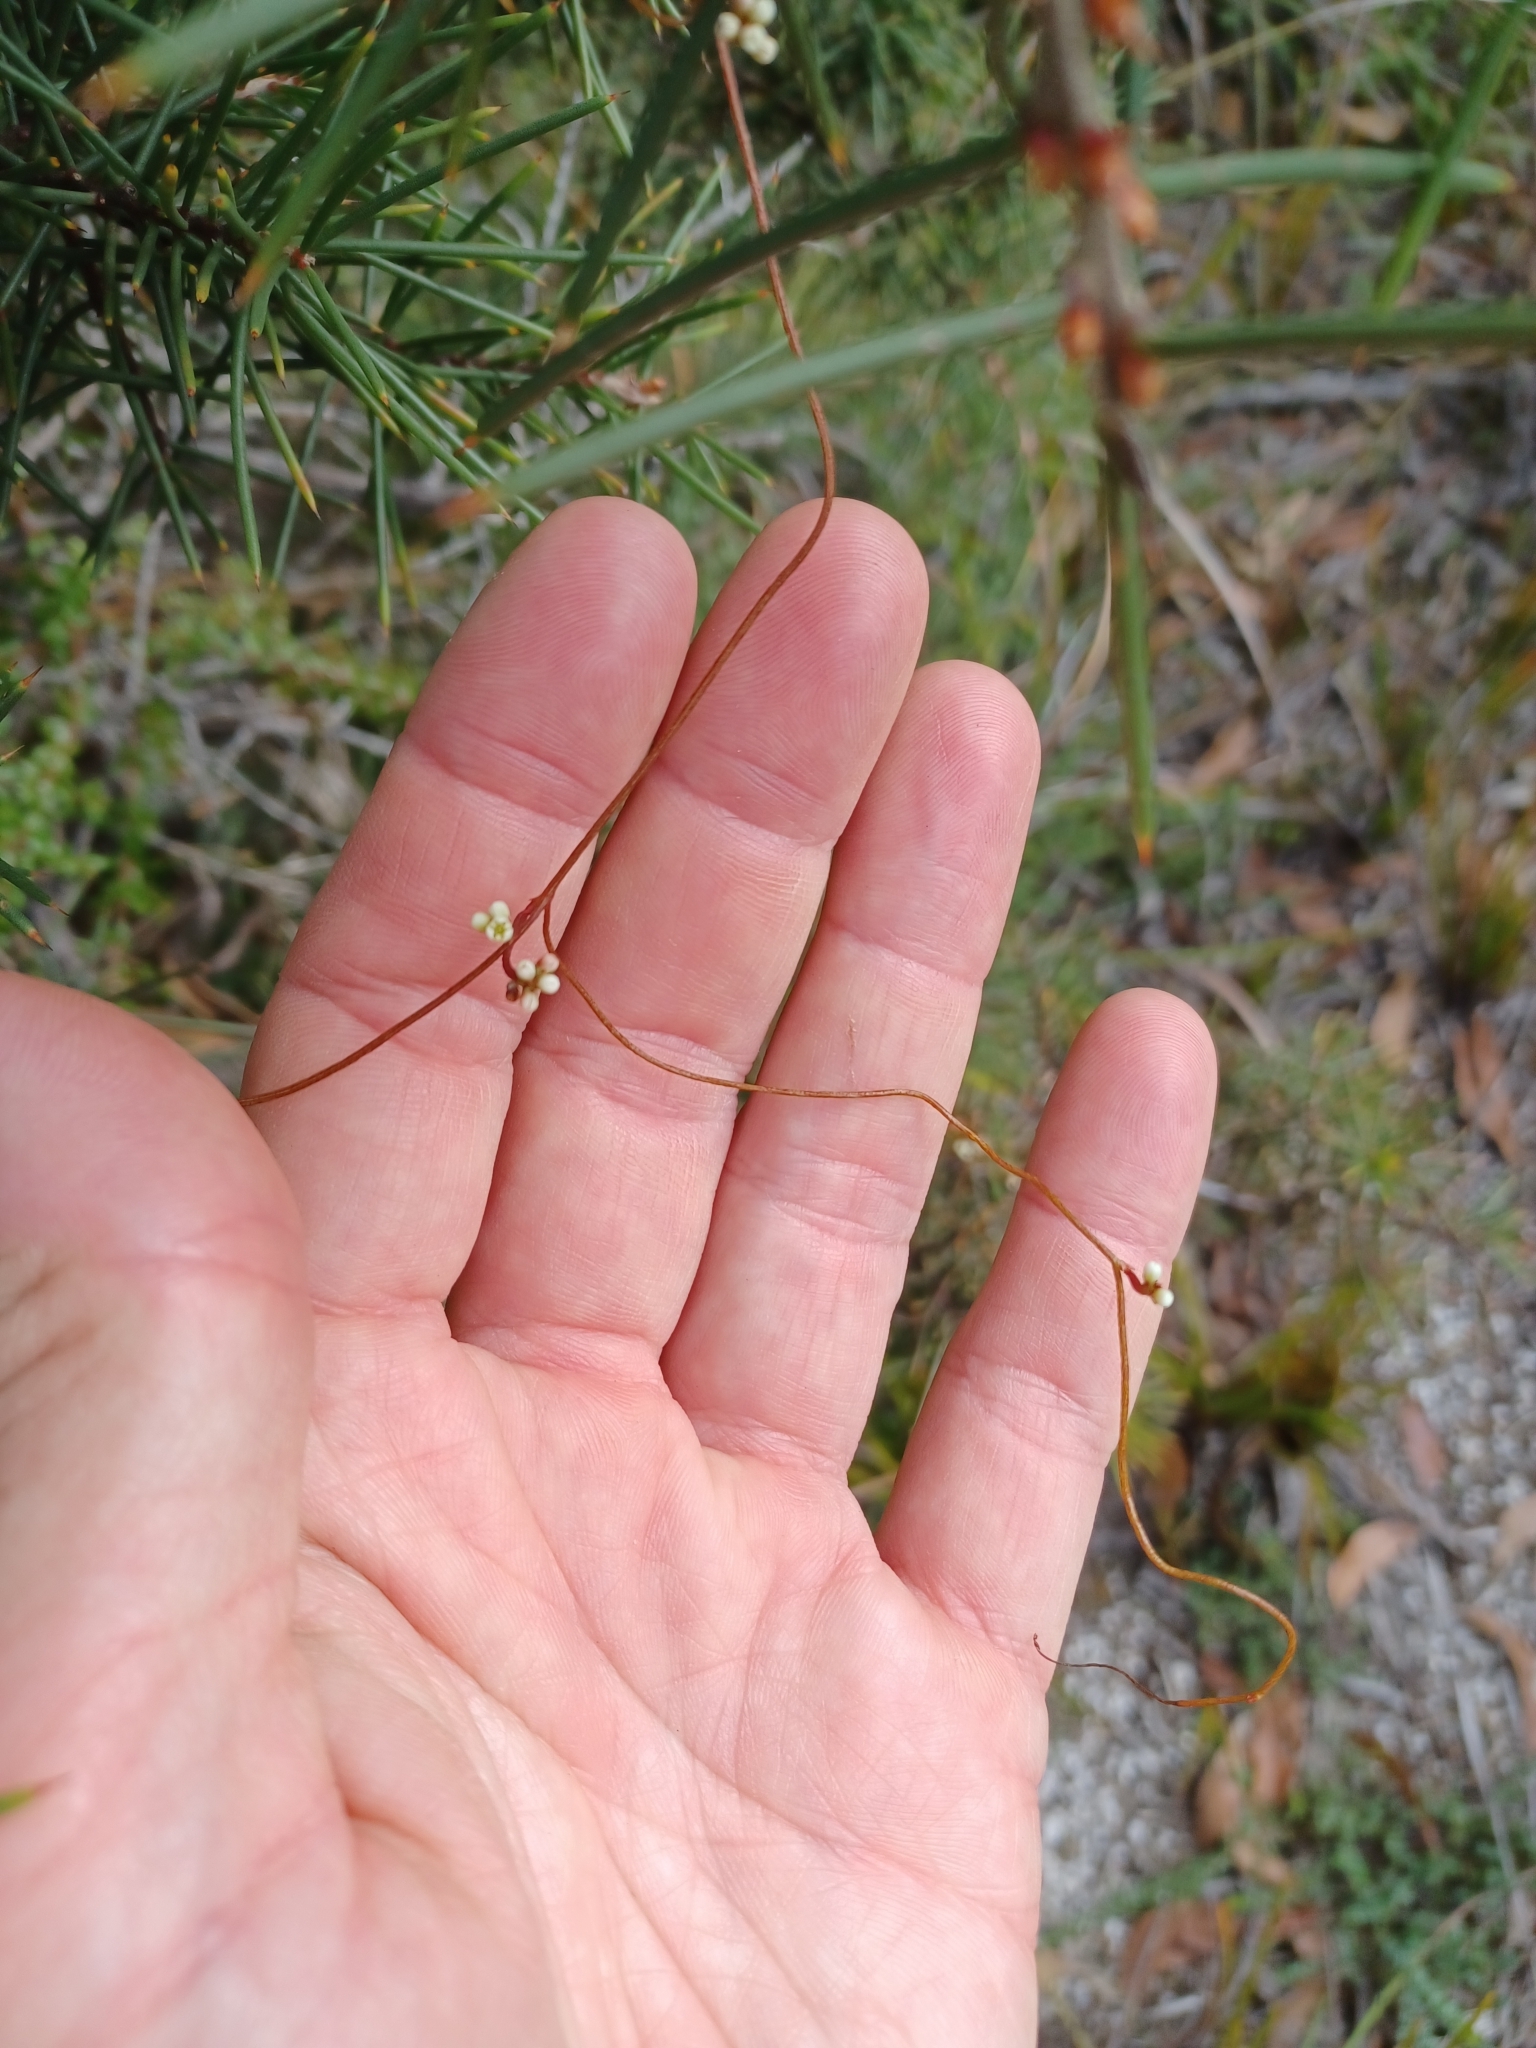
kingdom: Plantae
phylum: Tracheophyta
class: Magnoliopsida
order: Laurales
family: Lauraceae
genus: Cassytha
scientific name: Cassytha glabella
